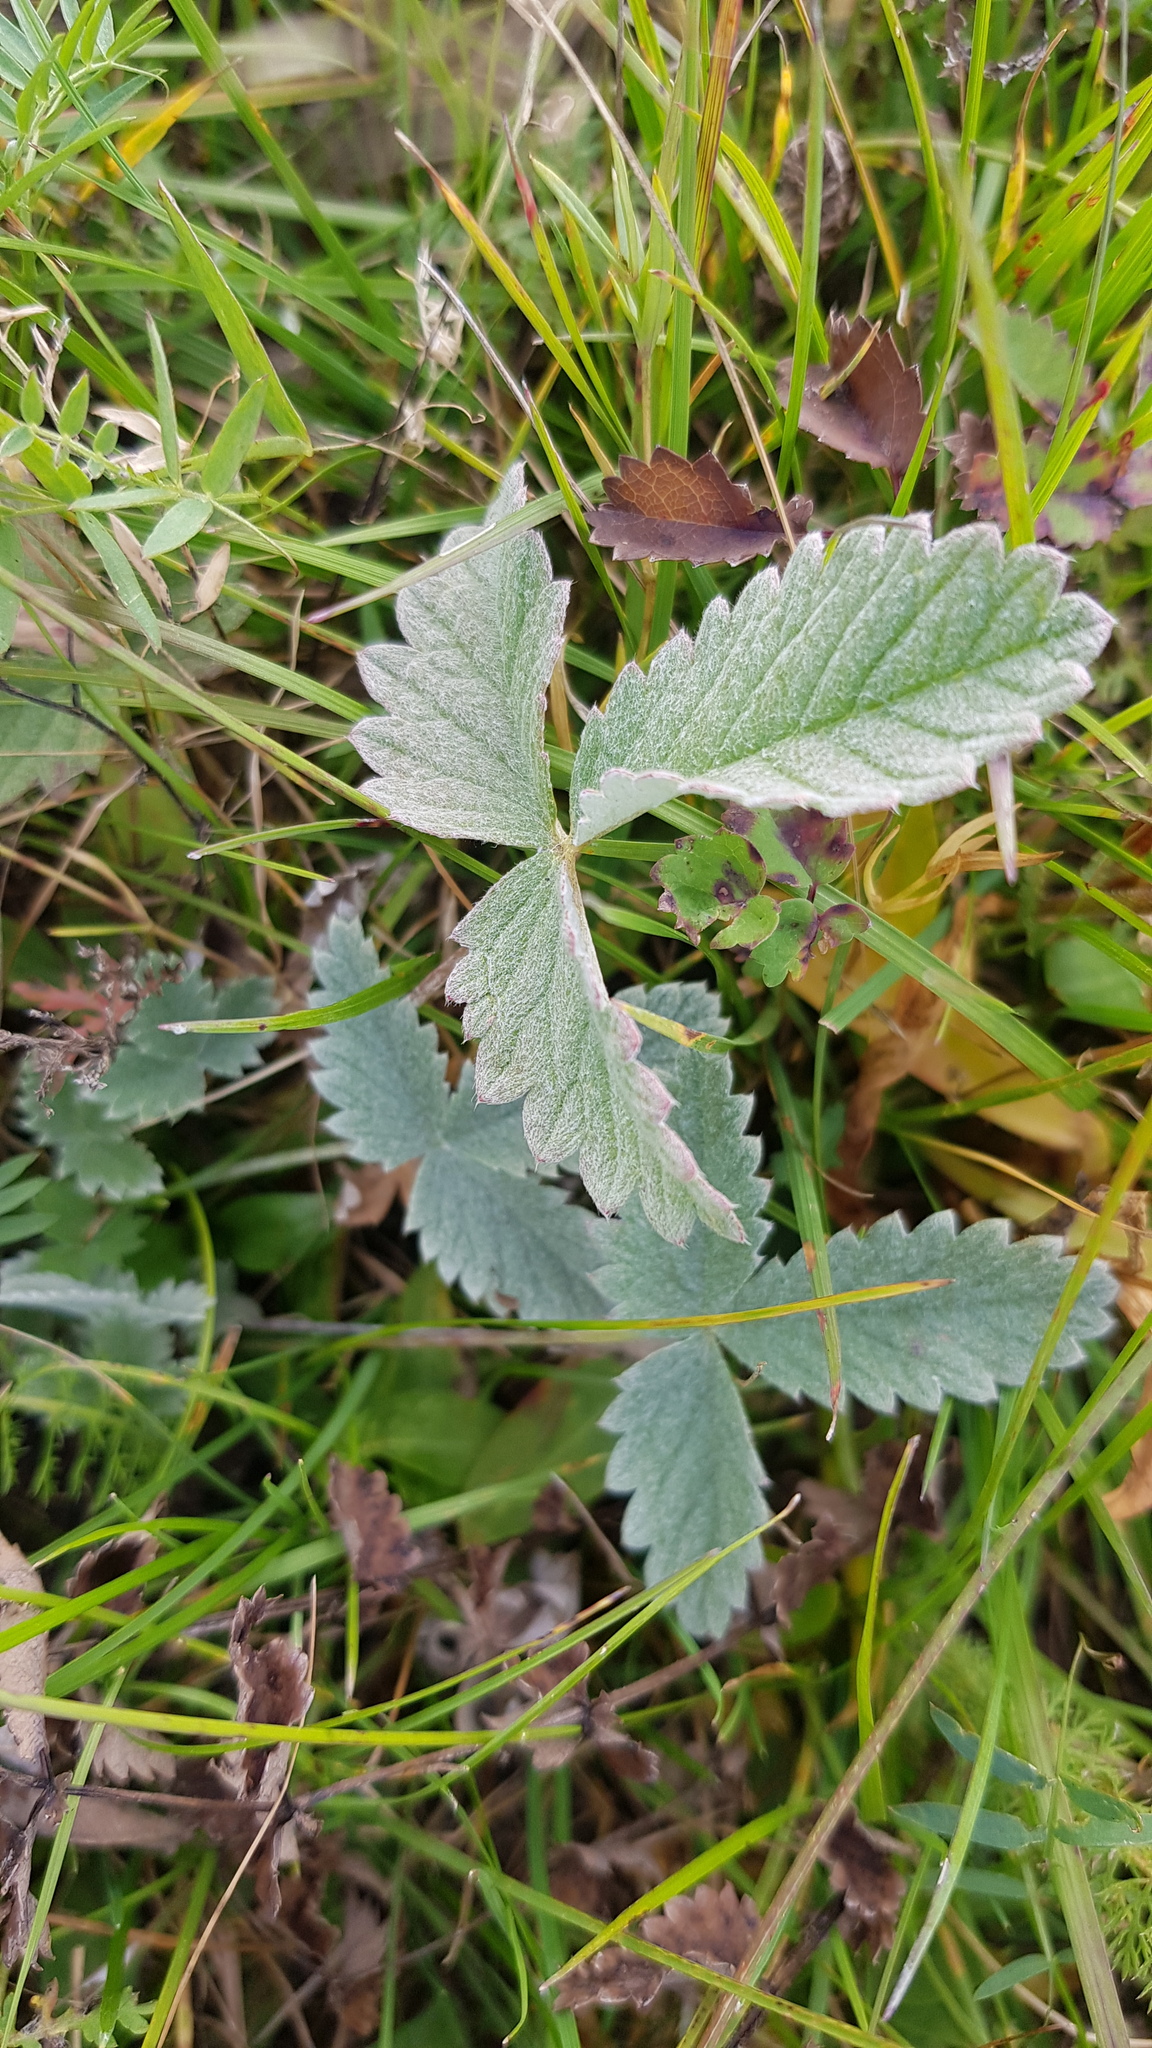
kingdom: Plantae
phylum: Tracheophyta
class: Magnoliopsida
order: Rosales
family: Rosaceae
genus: Potentilla
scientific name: Potentilla nivea
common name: Snow cinquefoil
